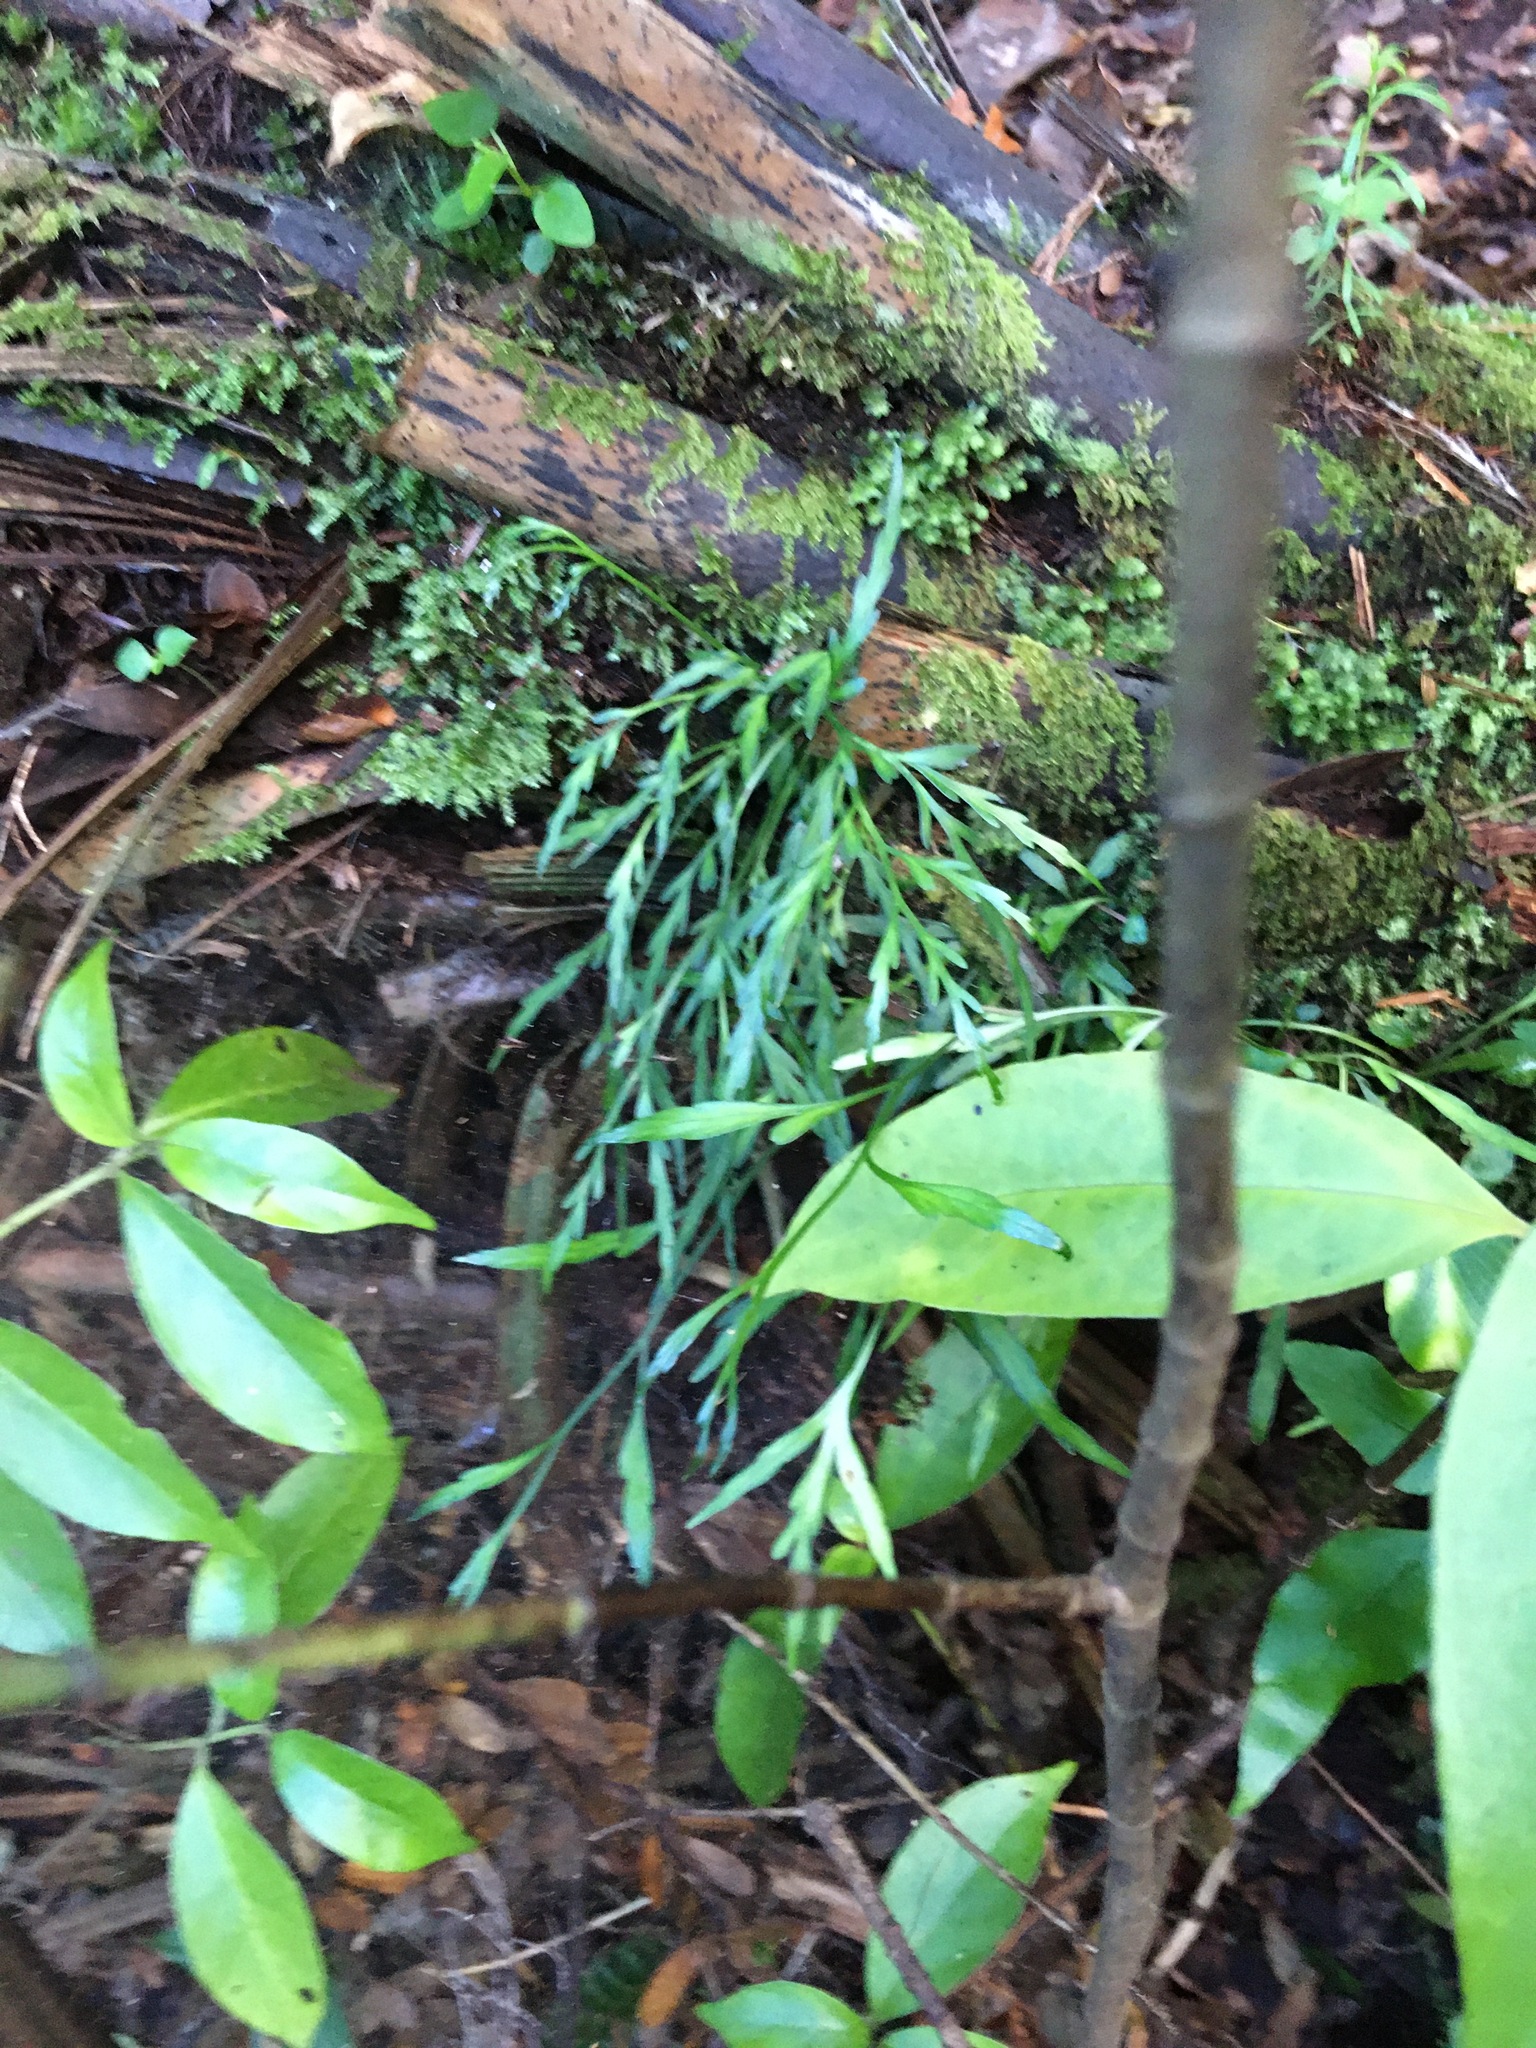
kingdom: Plantae
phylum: Tracheophyta
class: Polypodiopsida
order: Polypodiales
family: Aspleniaceae
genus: Asplenium
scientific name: Asplenium flaccidum
